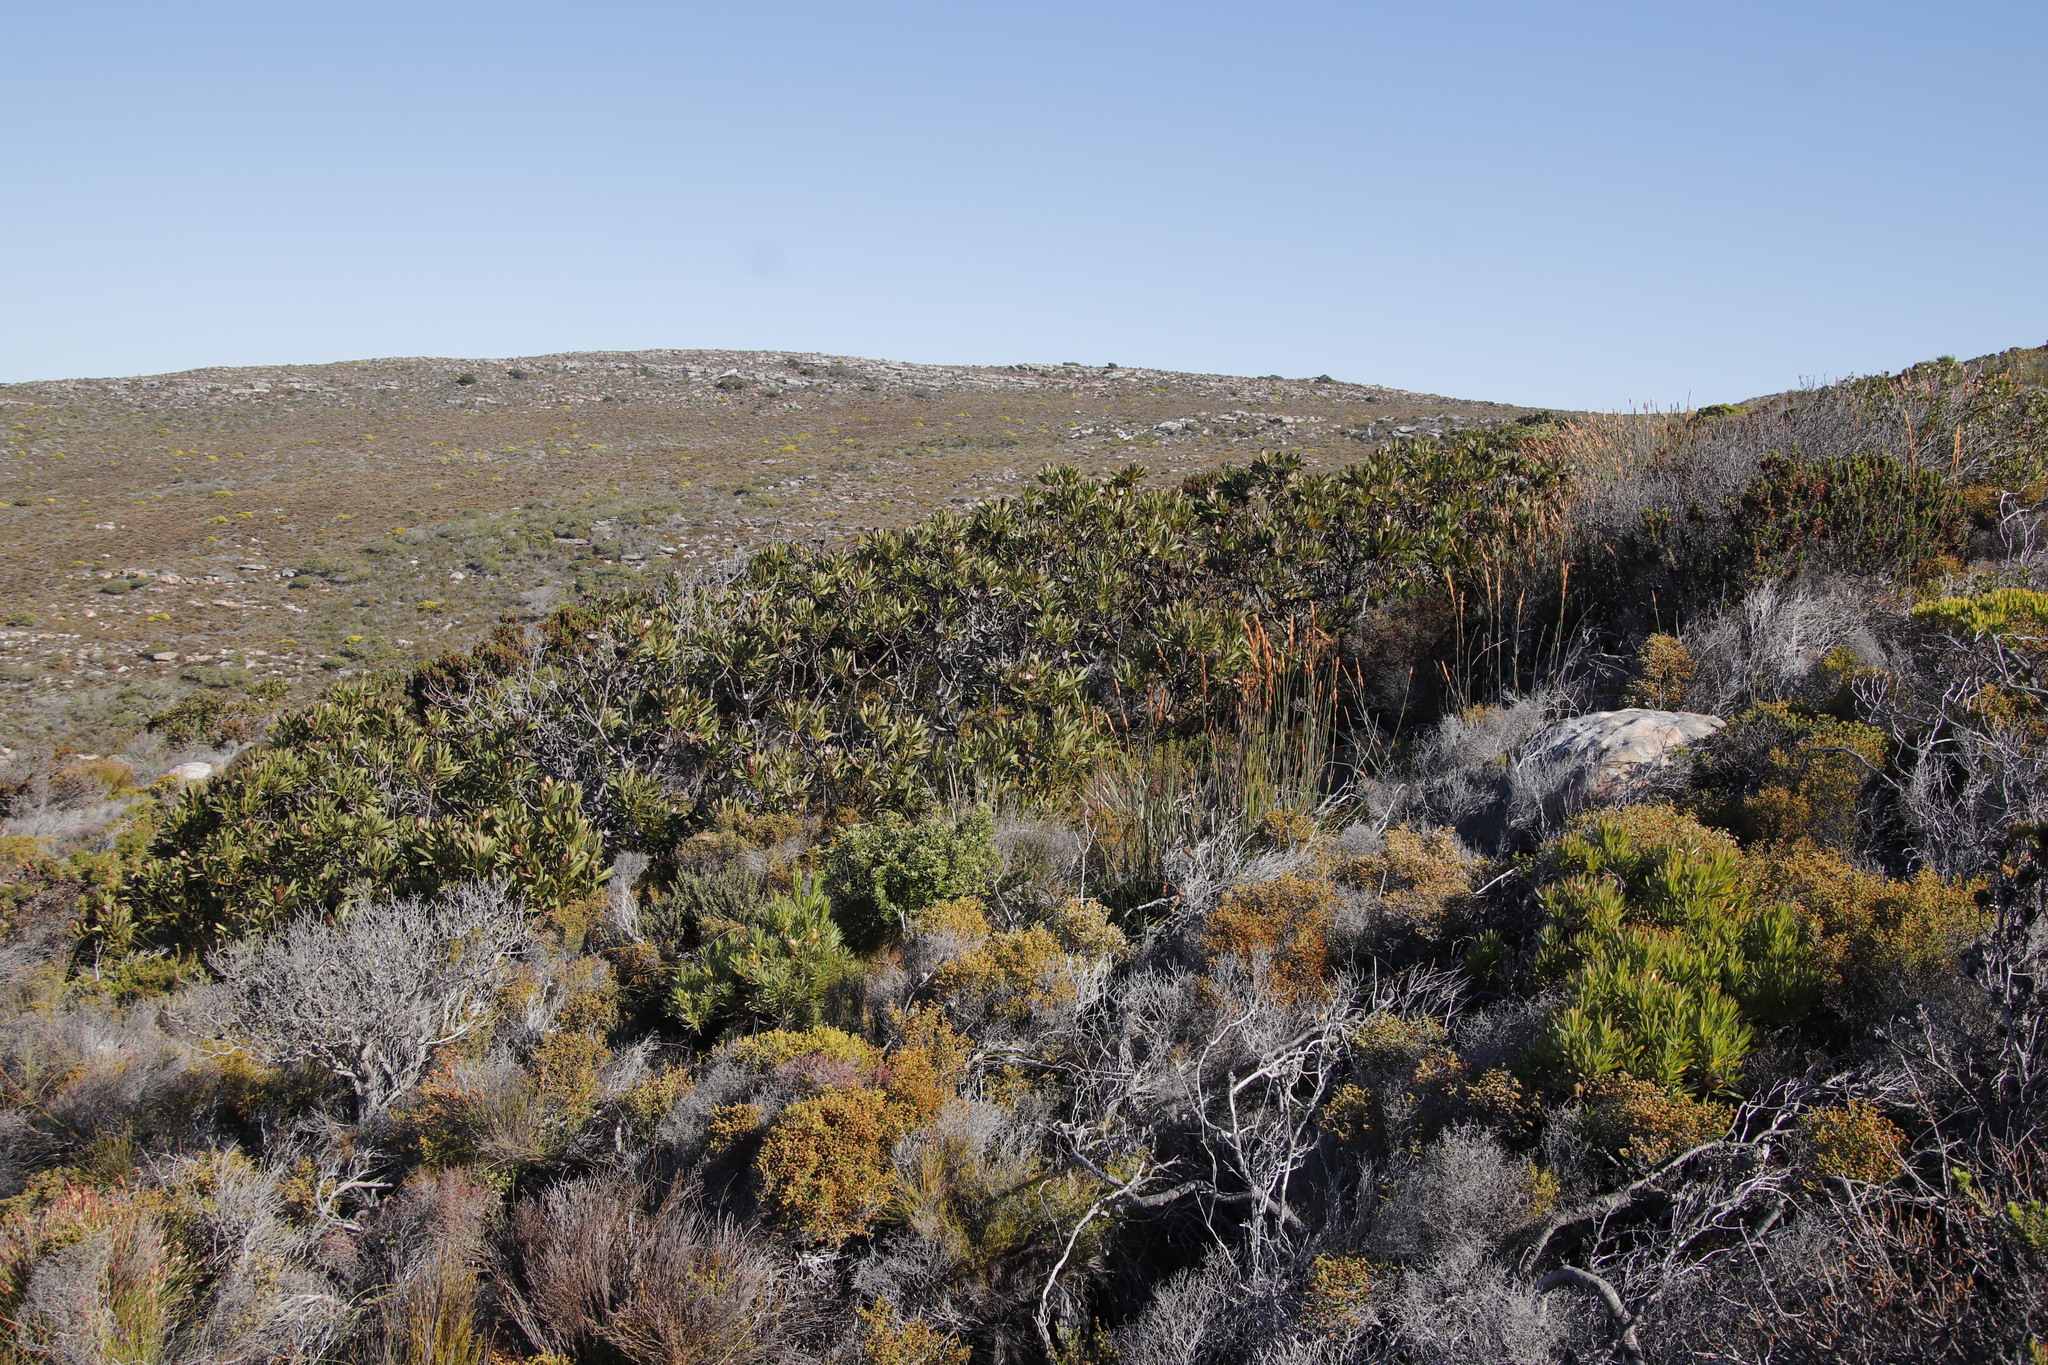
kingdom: Plantae
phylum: Tracheophyta
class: Magnoliopsida
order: Proteales
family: Proteaceae
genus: Protea
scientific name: Protea lepidocarpodendron
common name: Black-bearded protea
